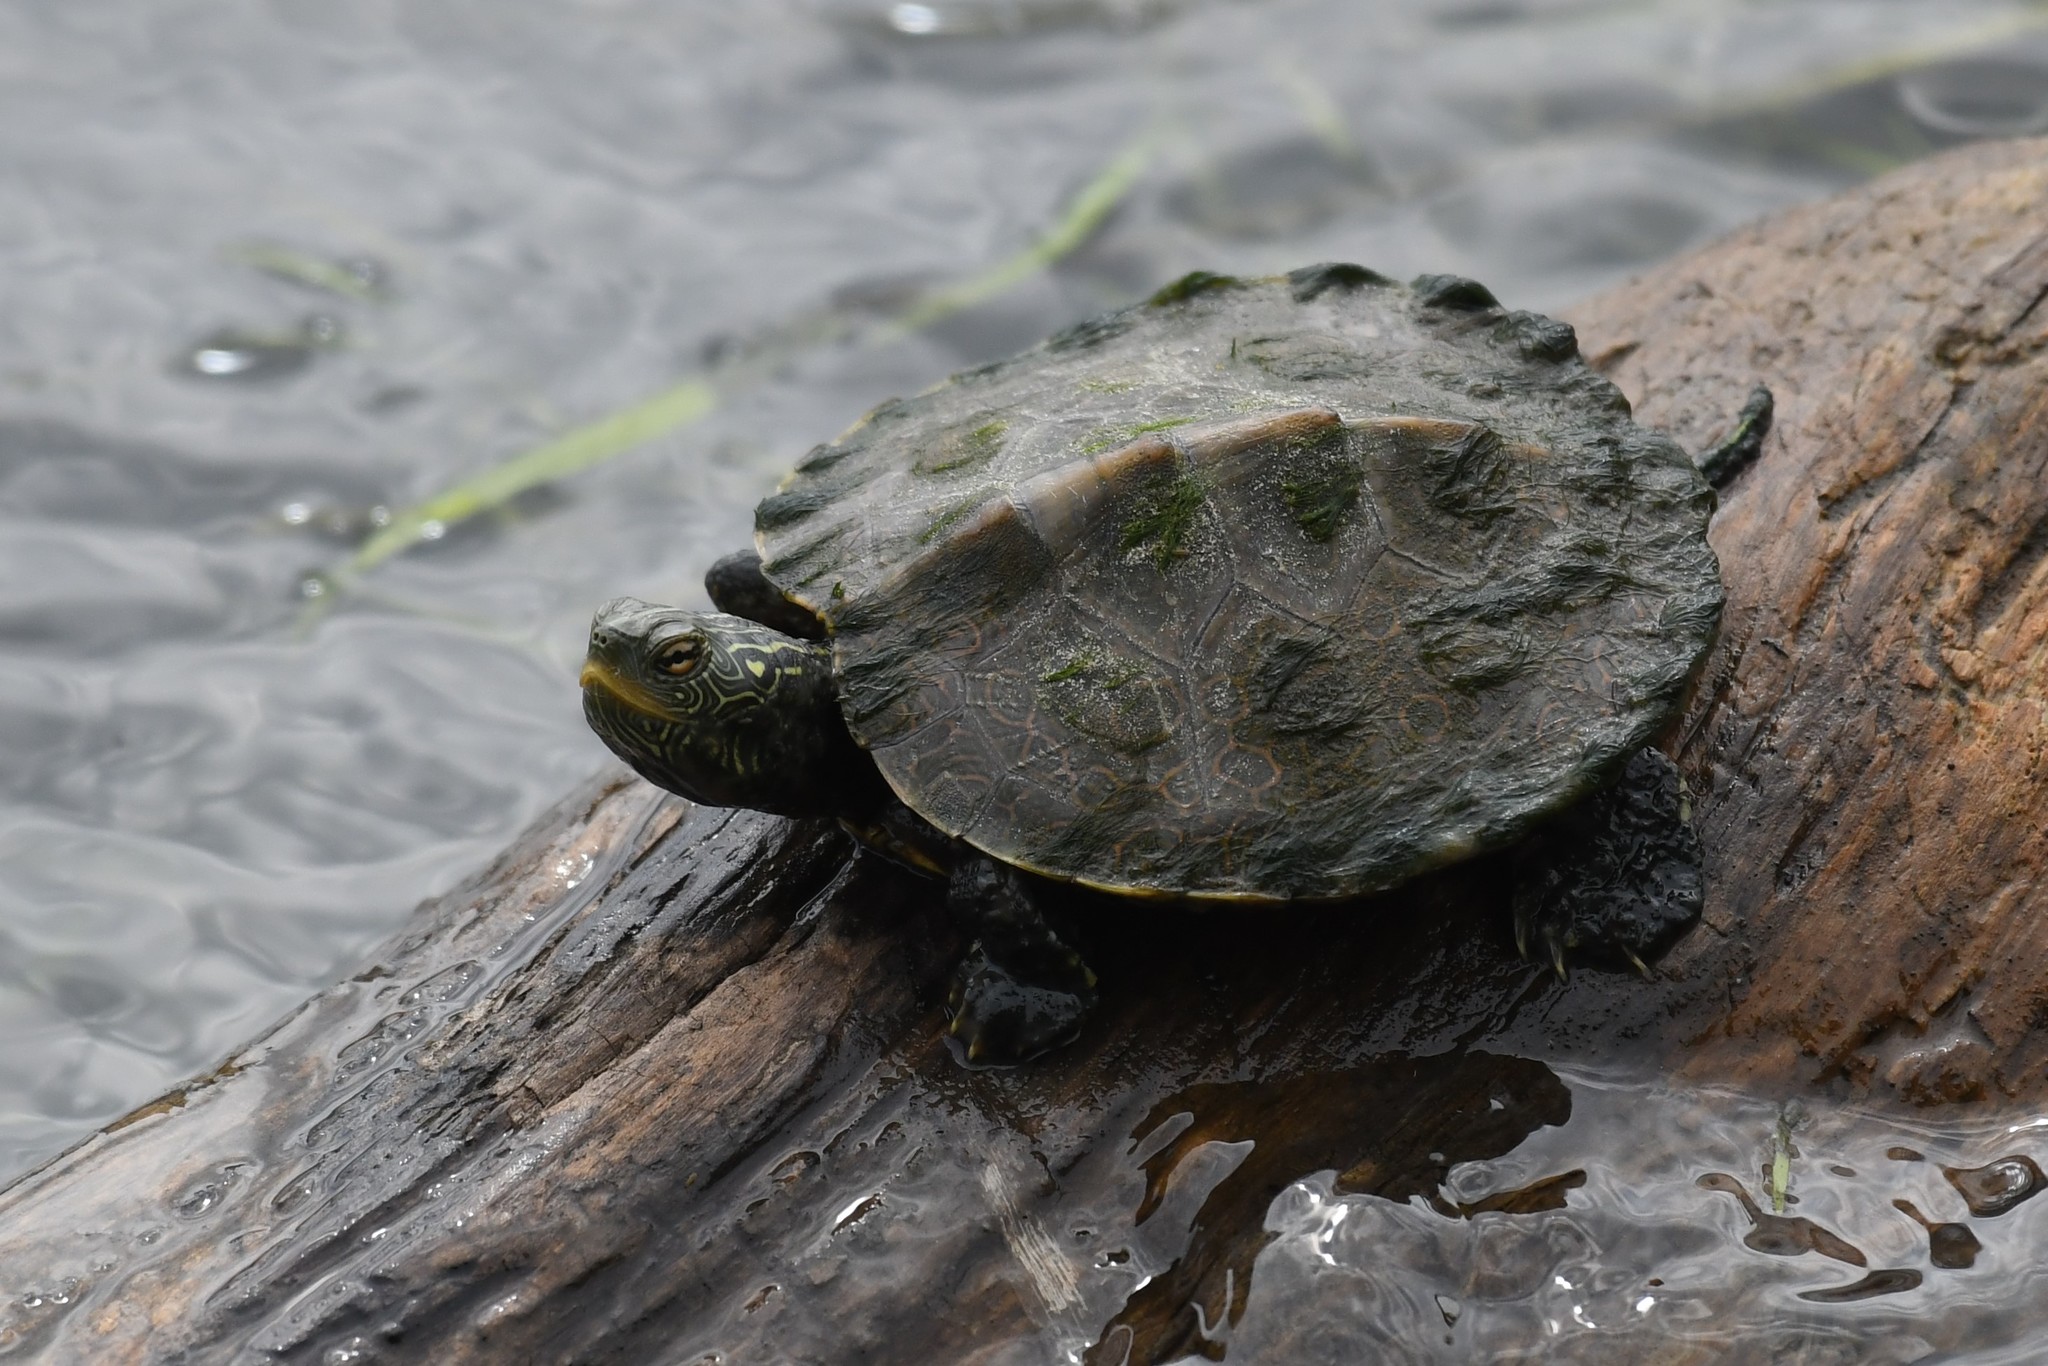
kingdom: Animalia
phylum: Chordata
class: Testudines
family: Emydidae
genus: Graptemys
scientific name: Graptemys geographica
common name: Common map turtle
